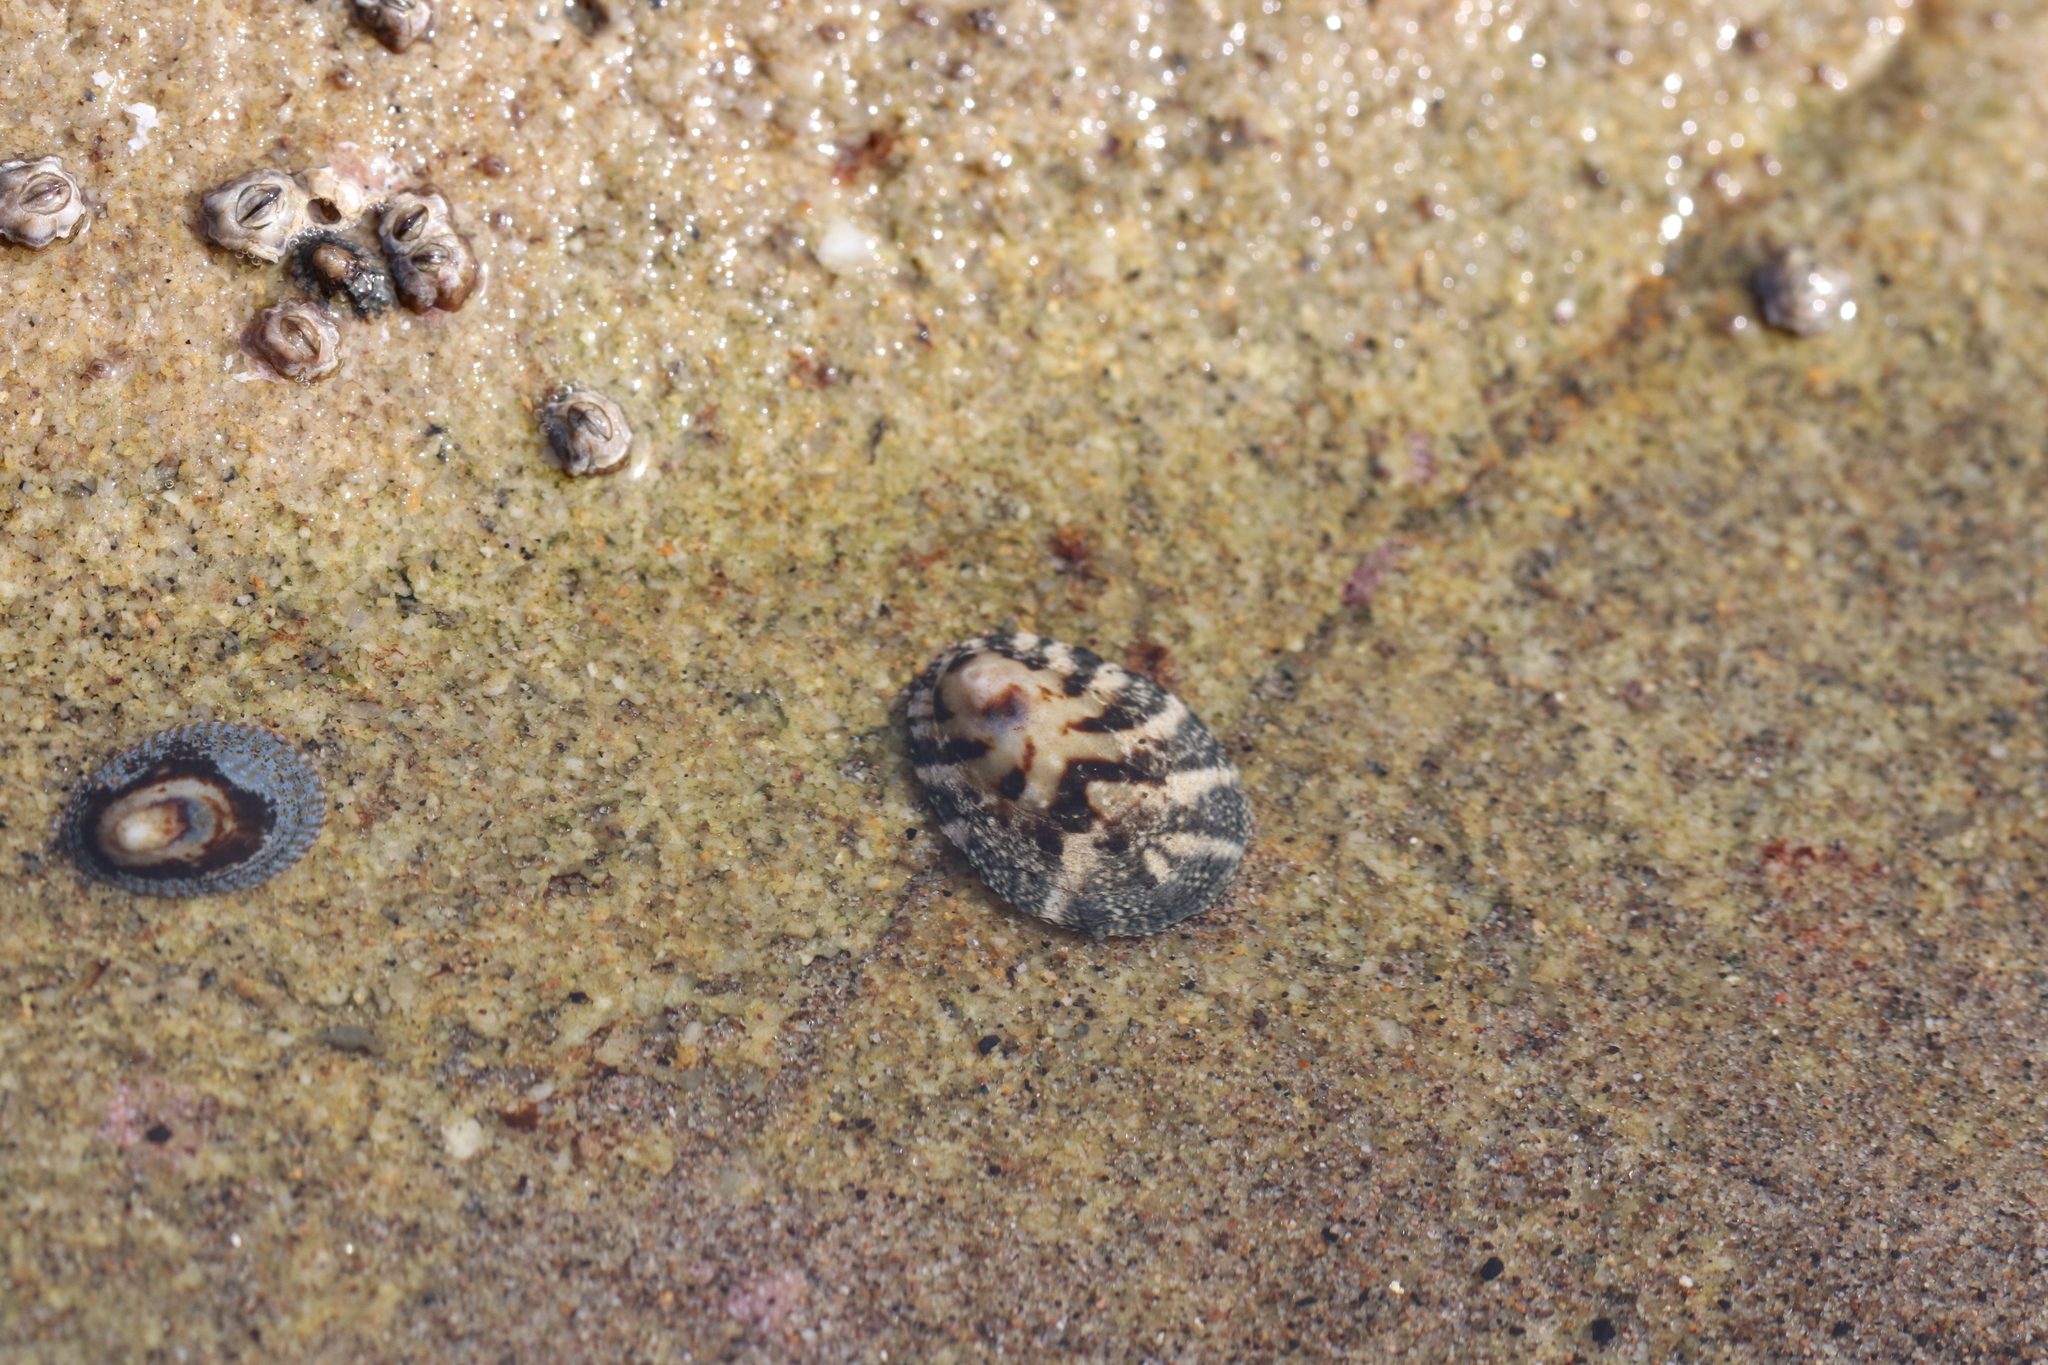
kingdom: Animalia
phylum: Mollusca
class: Gastropoda
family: Lottiidae
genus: Lottia
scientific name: Lottia austrodigitalis
